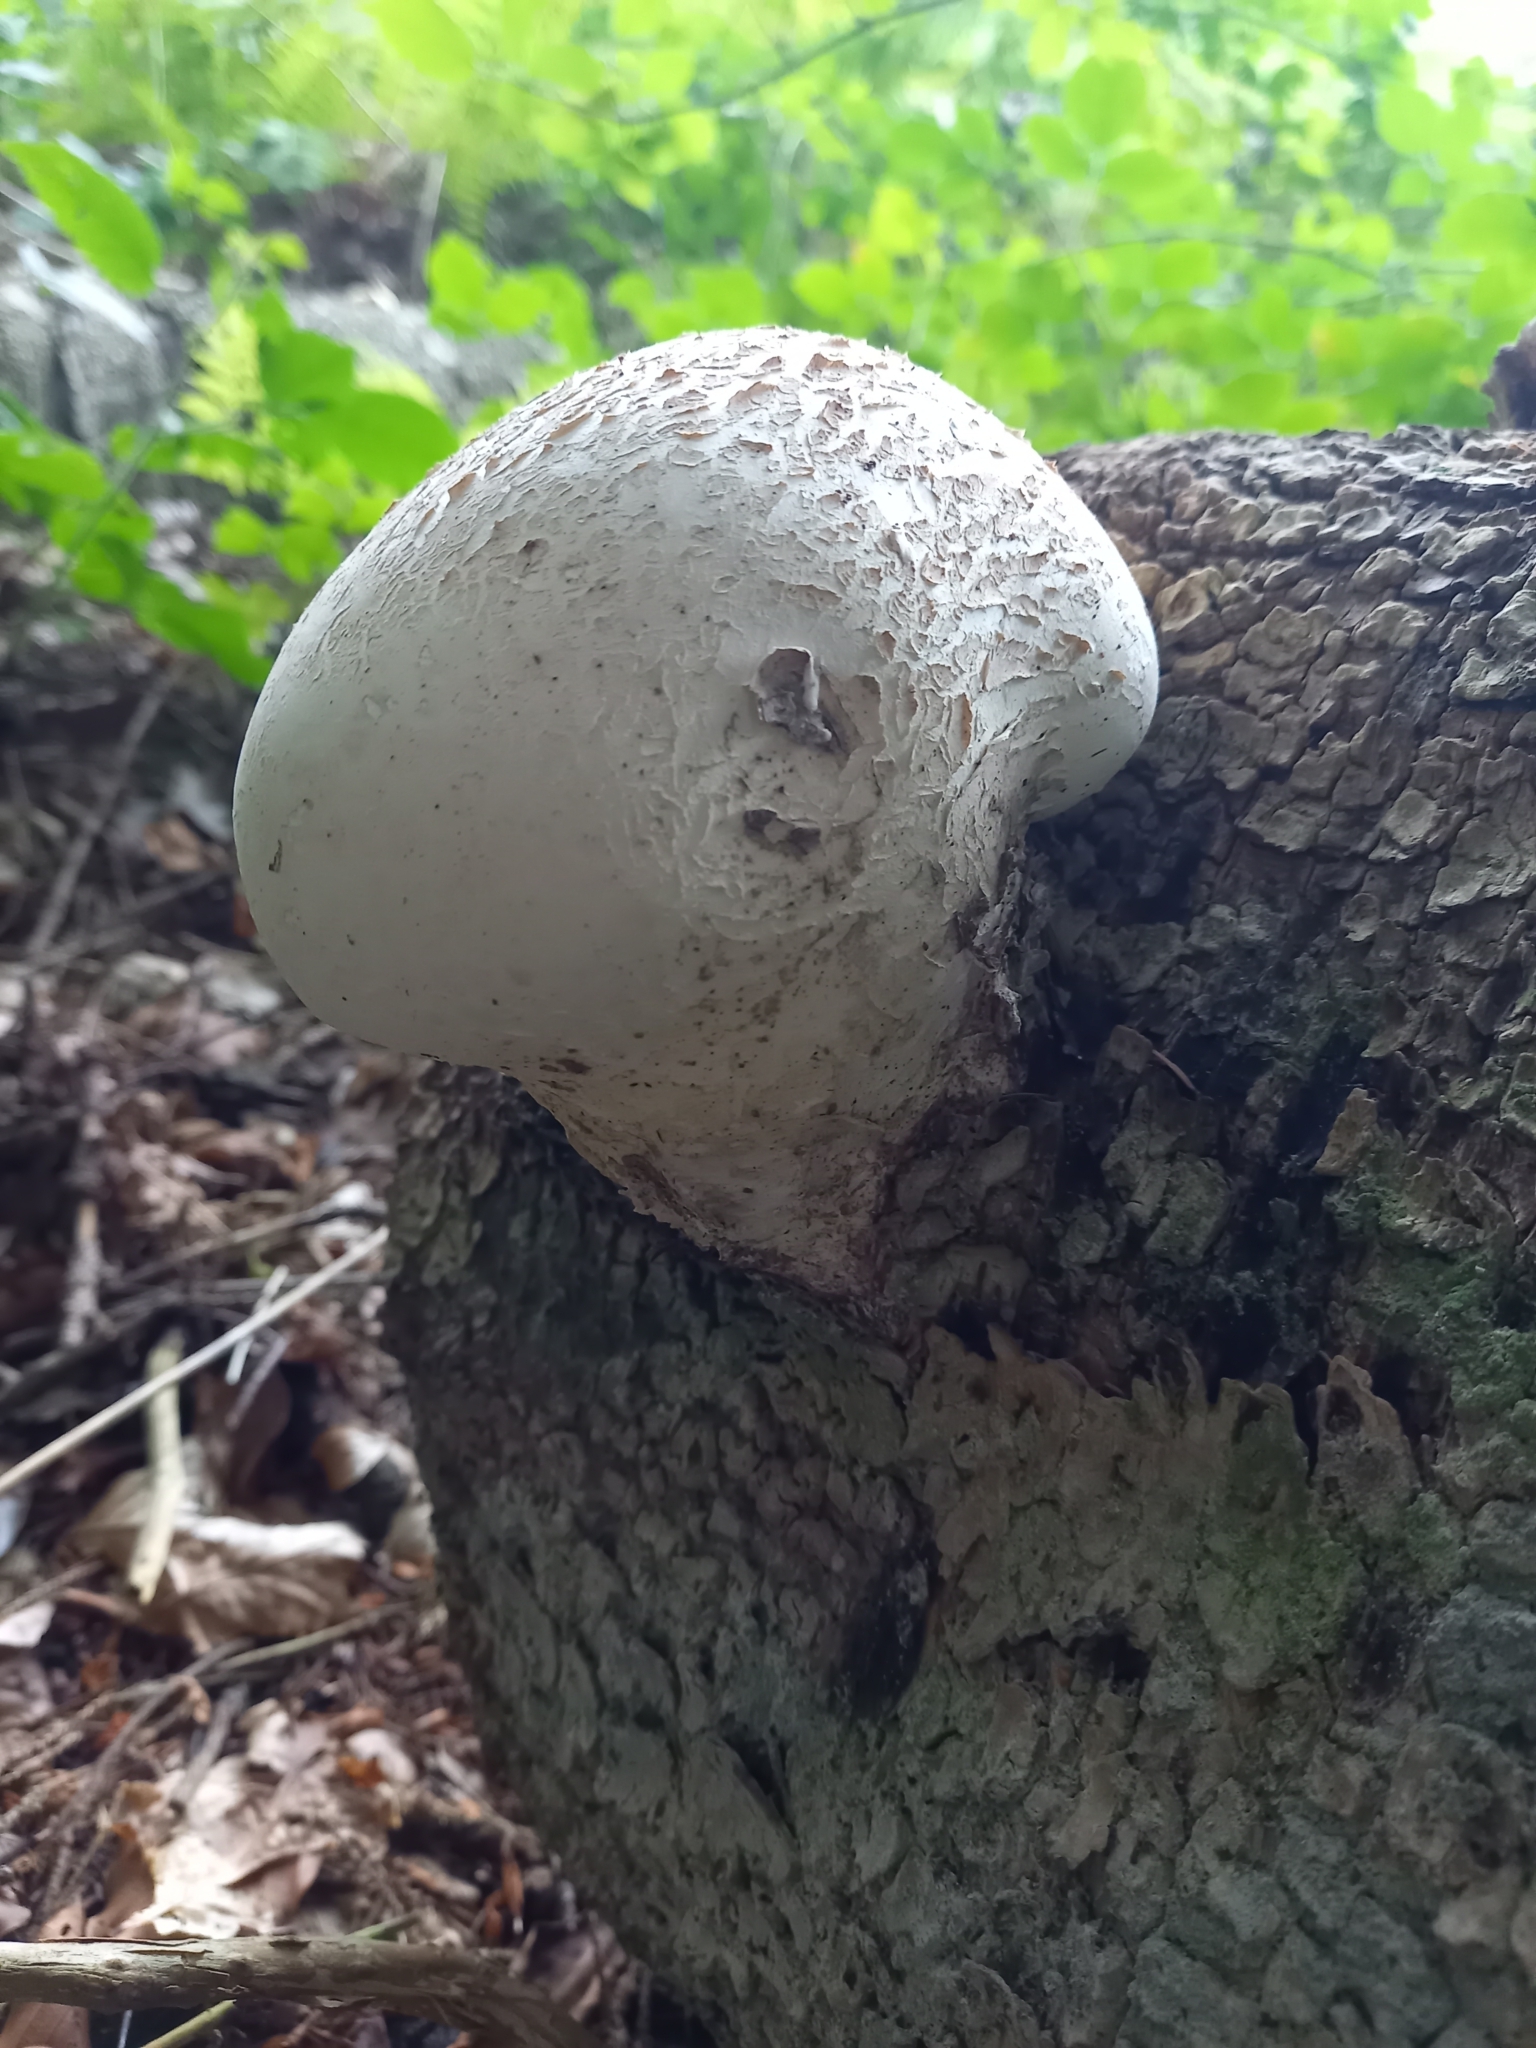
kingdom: Fungi
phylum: Basidiomycota
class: Agaricomycetes
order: Polyporales
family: Fomitopsidaceae
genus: Fomitopsis
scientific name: Fomitopsis betulina
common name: Birch polypore
